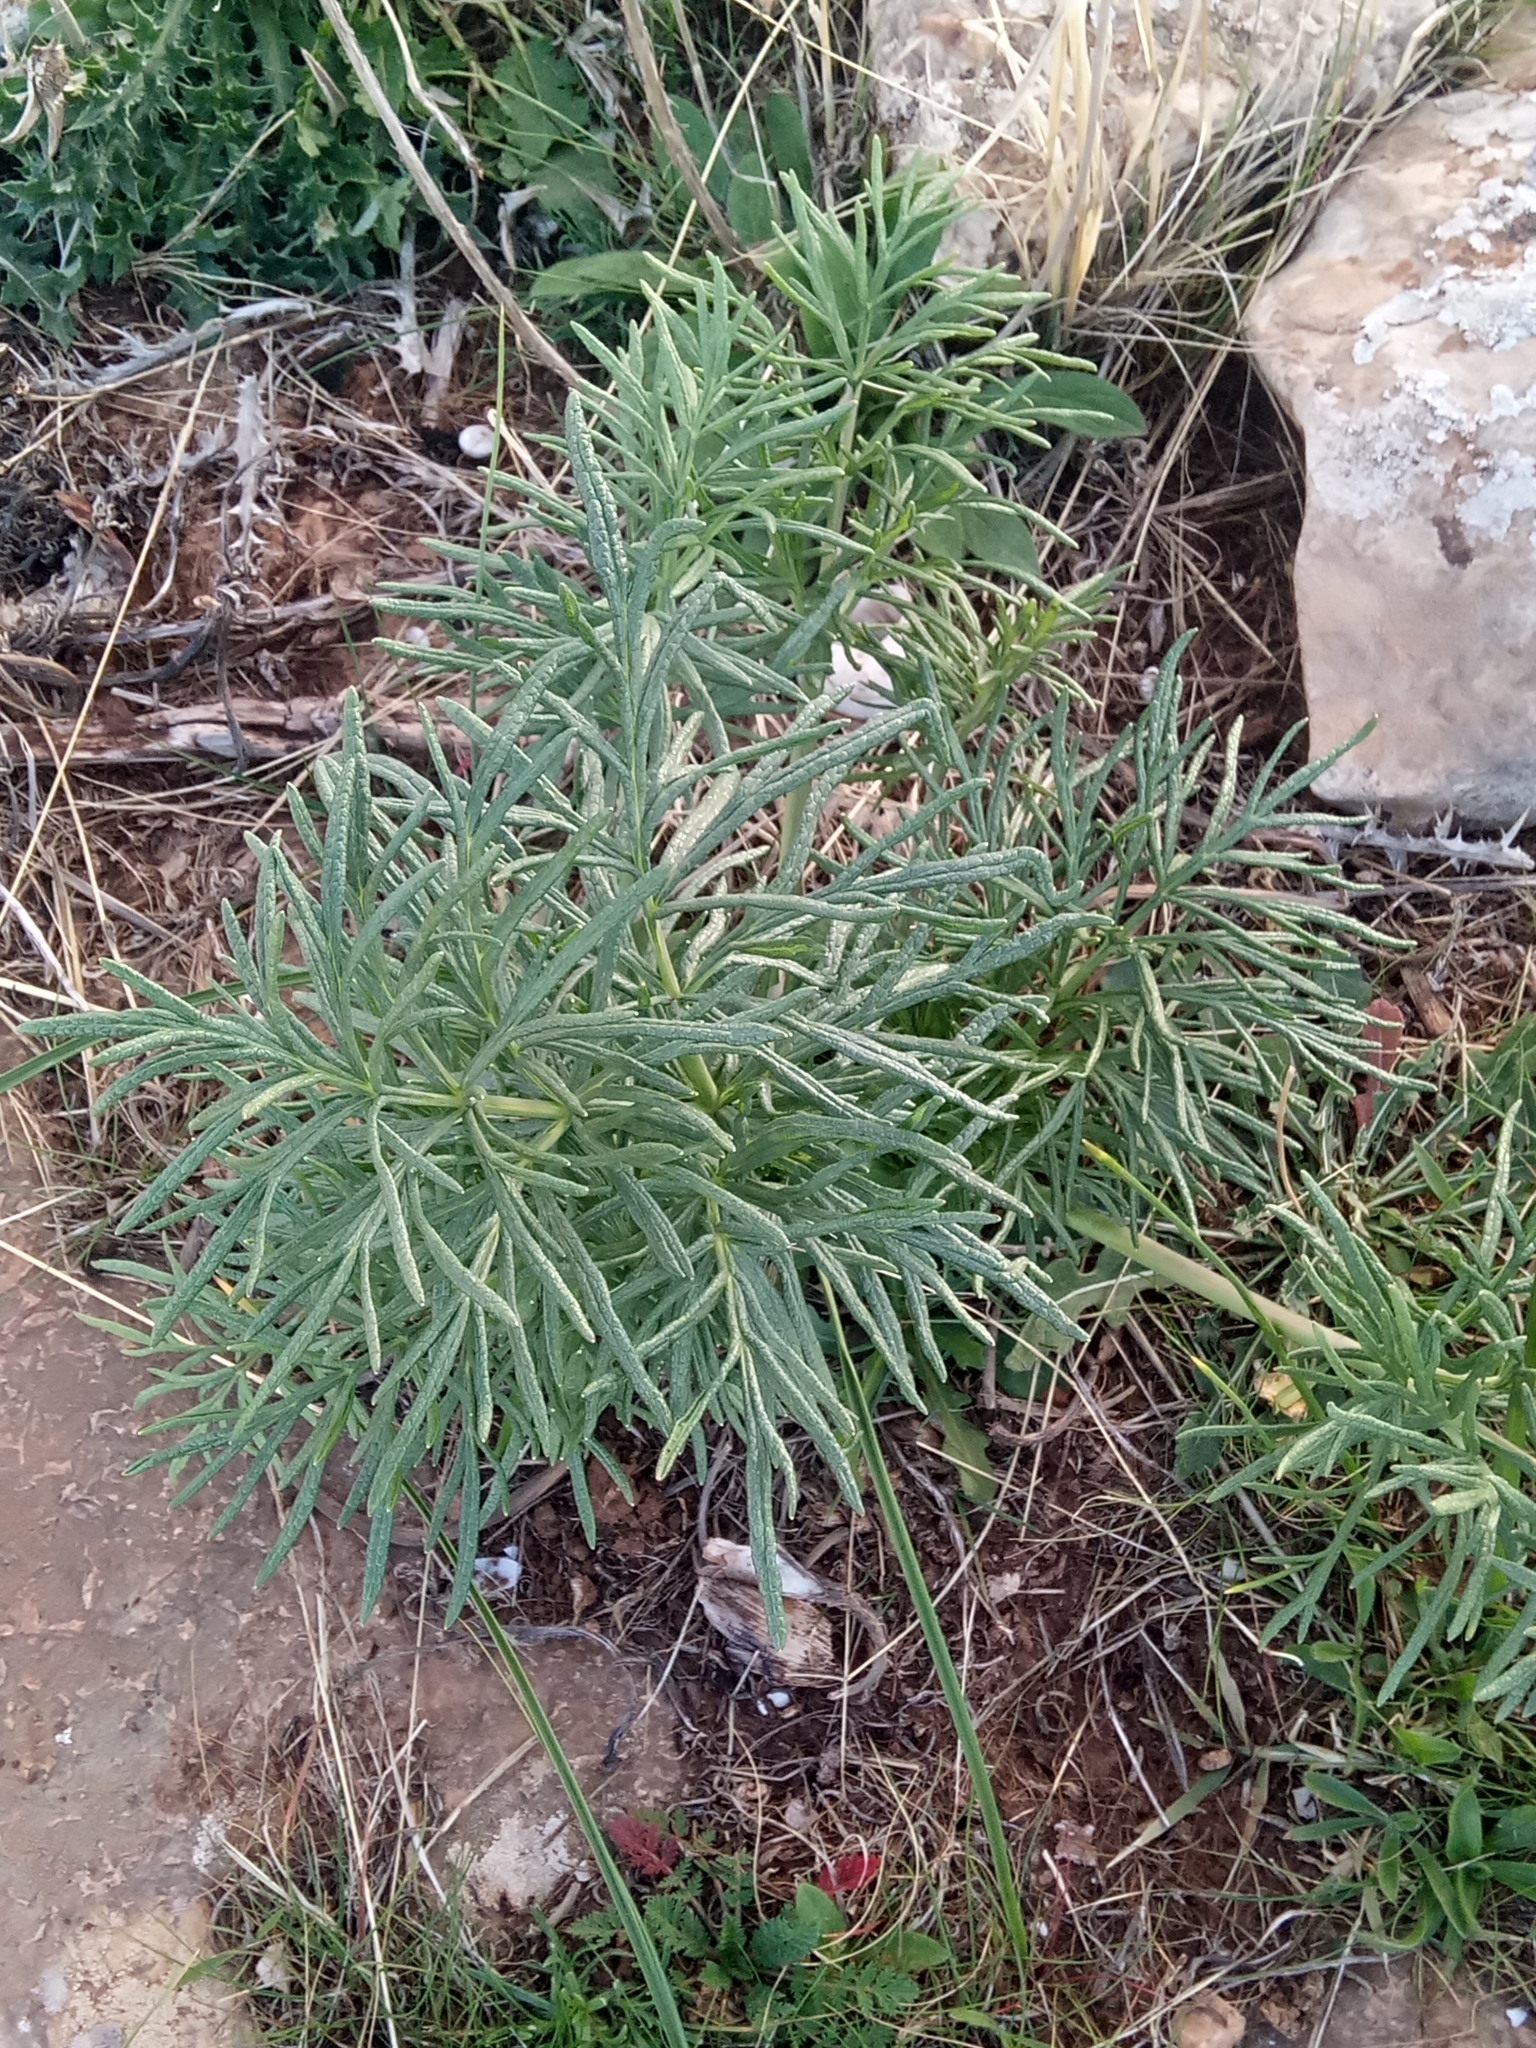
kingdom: Plantae
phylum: Tracheophyta
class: Magnoliopsida
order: Apiales
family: Apiaceae
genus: Thapsia
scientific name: Thapsia garganica
